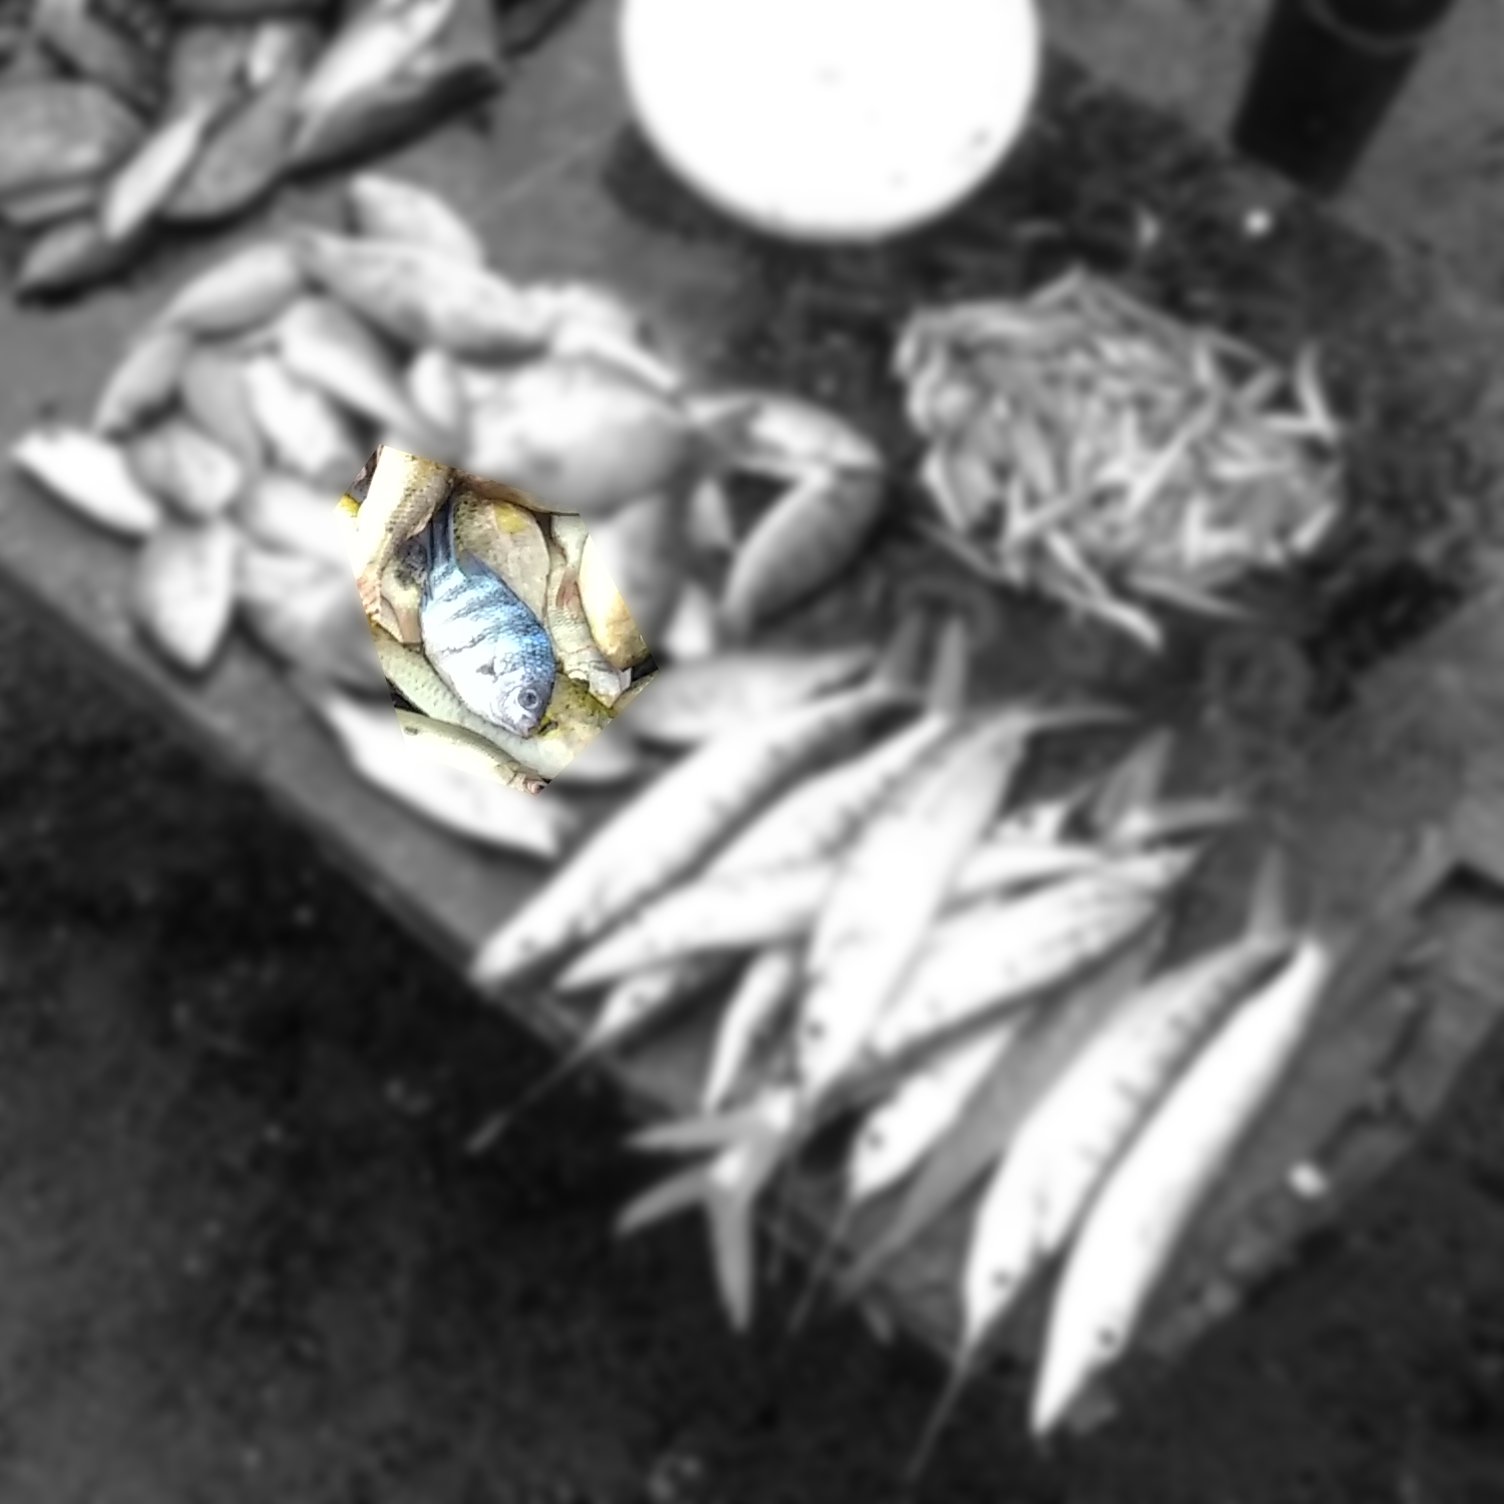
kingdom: Animalia
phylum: Chordata
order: Perciformes
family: Pomacentridae
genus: Abudefduf
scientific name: Abudefduf sexfasciatus
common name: Scissortail sergeant
